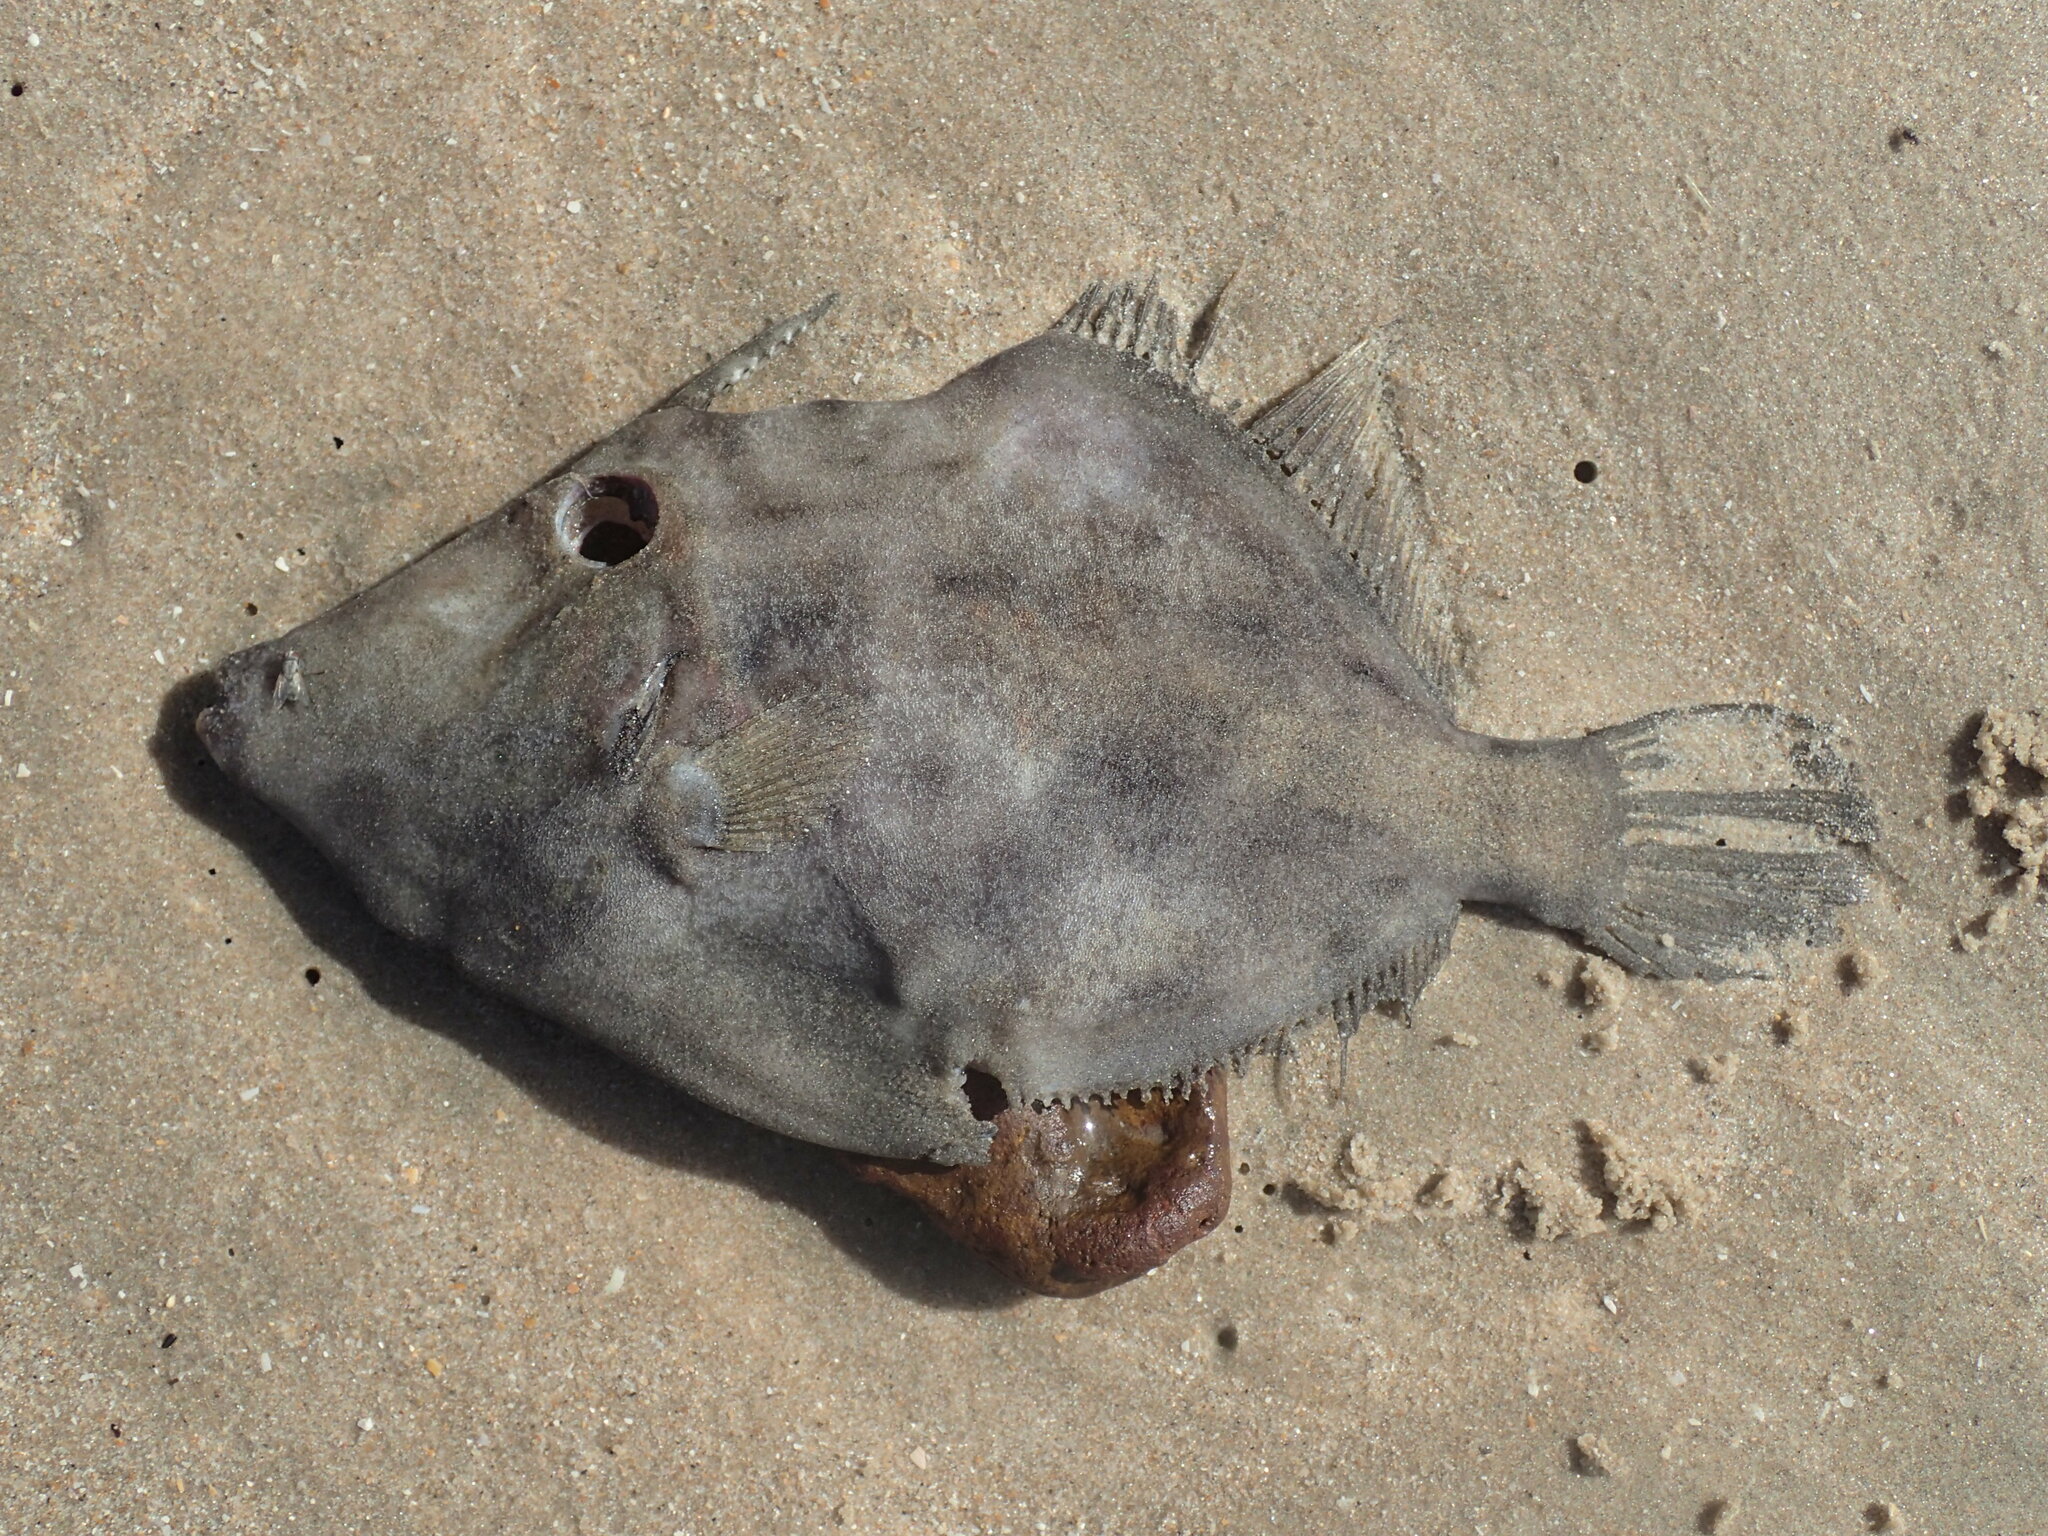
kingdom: Animalia
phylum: Chordata
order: Tetraodontiformes
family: Monacanthidae
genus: Stephanolepis
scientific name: Stephanolepis hispidus
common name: Planehead filefish
